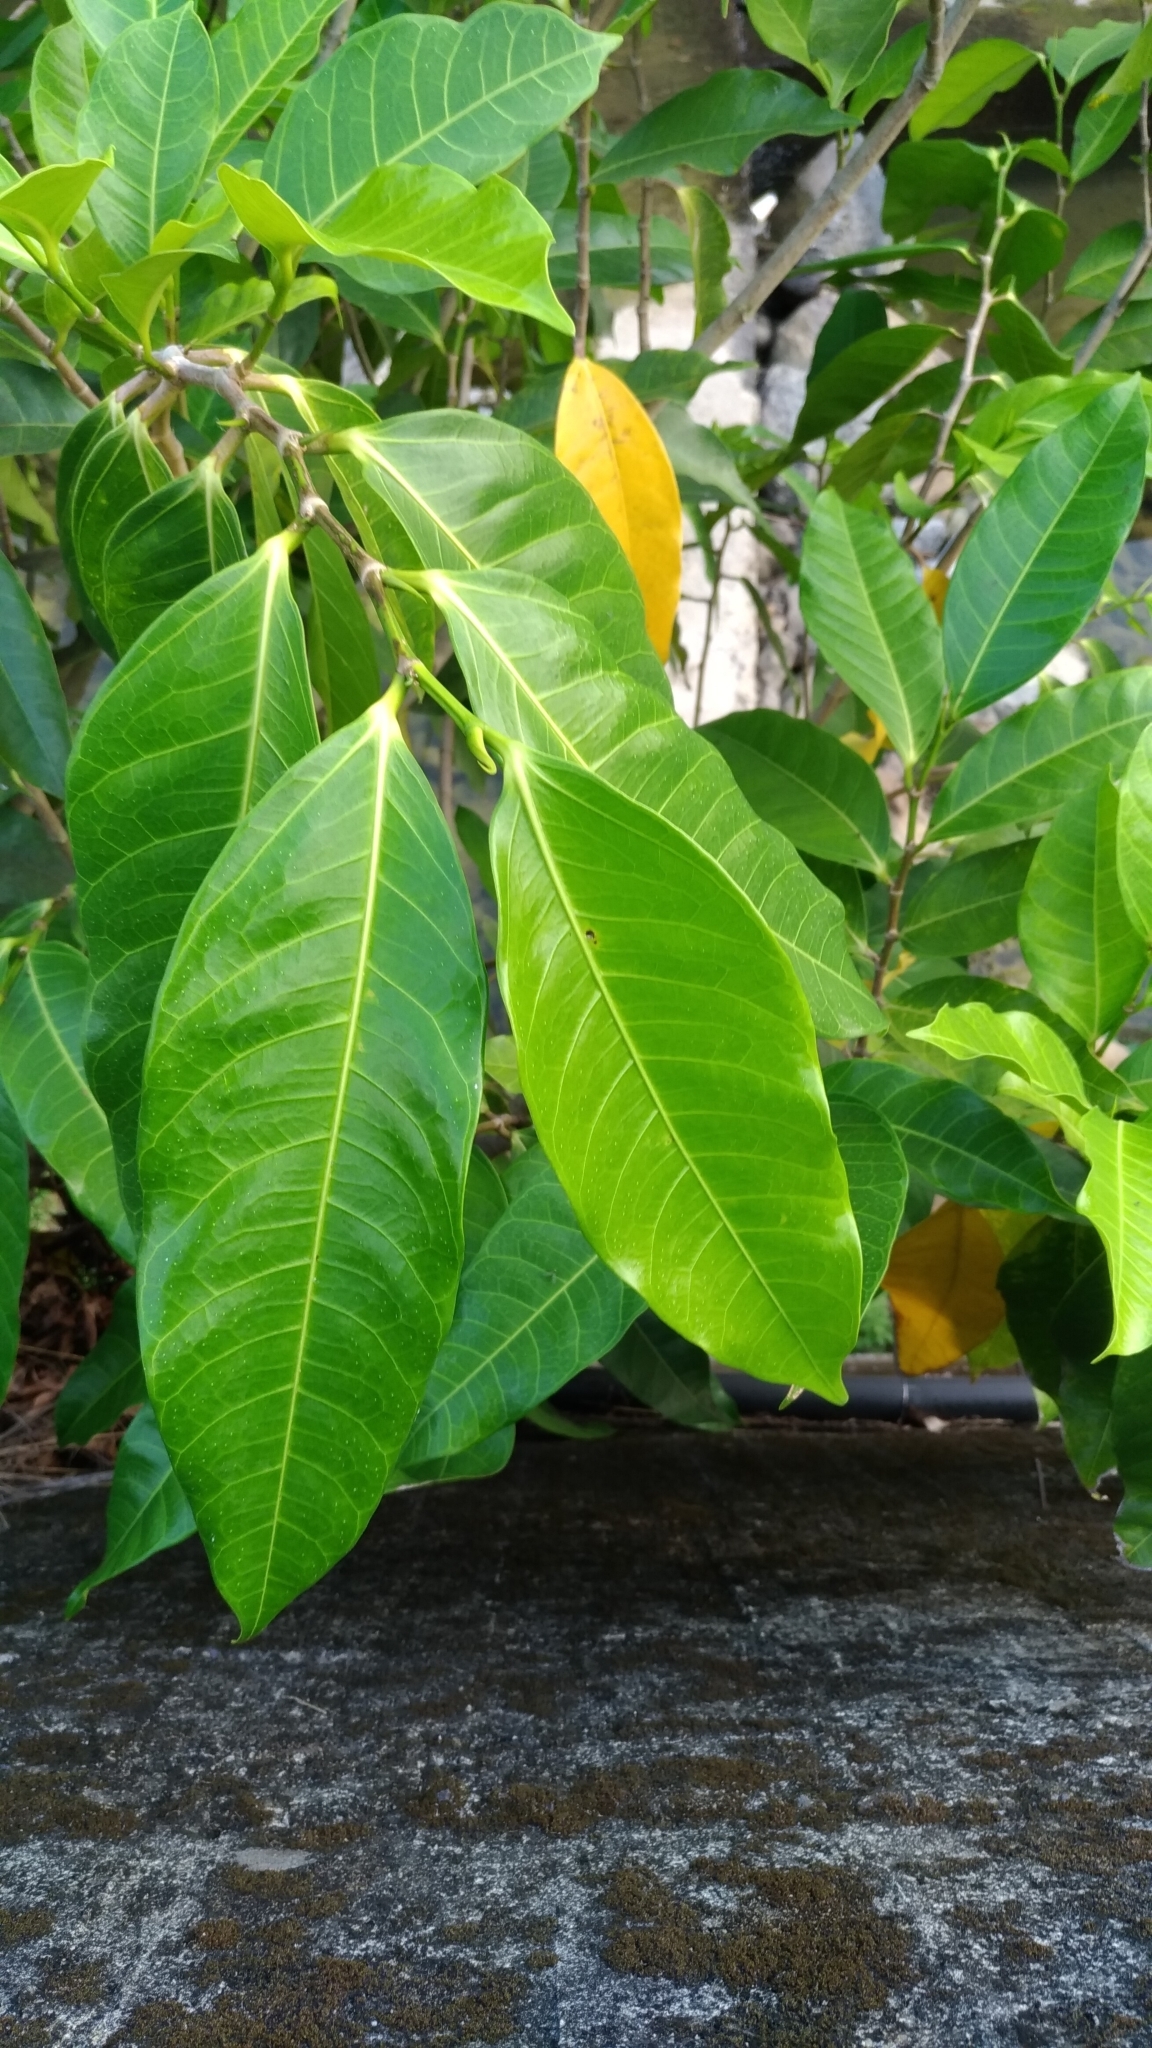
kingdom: Plantae
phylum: Tracheophyta
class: Magnoliopsida
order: Rosales
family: Moraceae
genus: Ficus
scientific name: Ficus virgata
